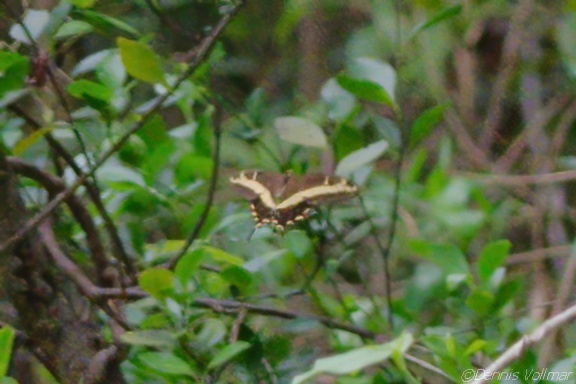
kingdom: Animalia
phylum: Arthropoda
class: Insecta
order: Lepidoptera
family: Papilionidae
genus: Papilio
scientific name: Papilio andraemon
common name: Bahaman swallowtail
